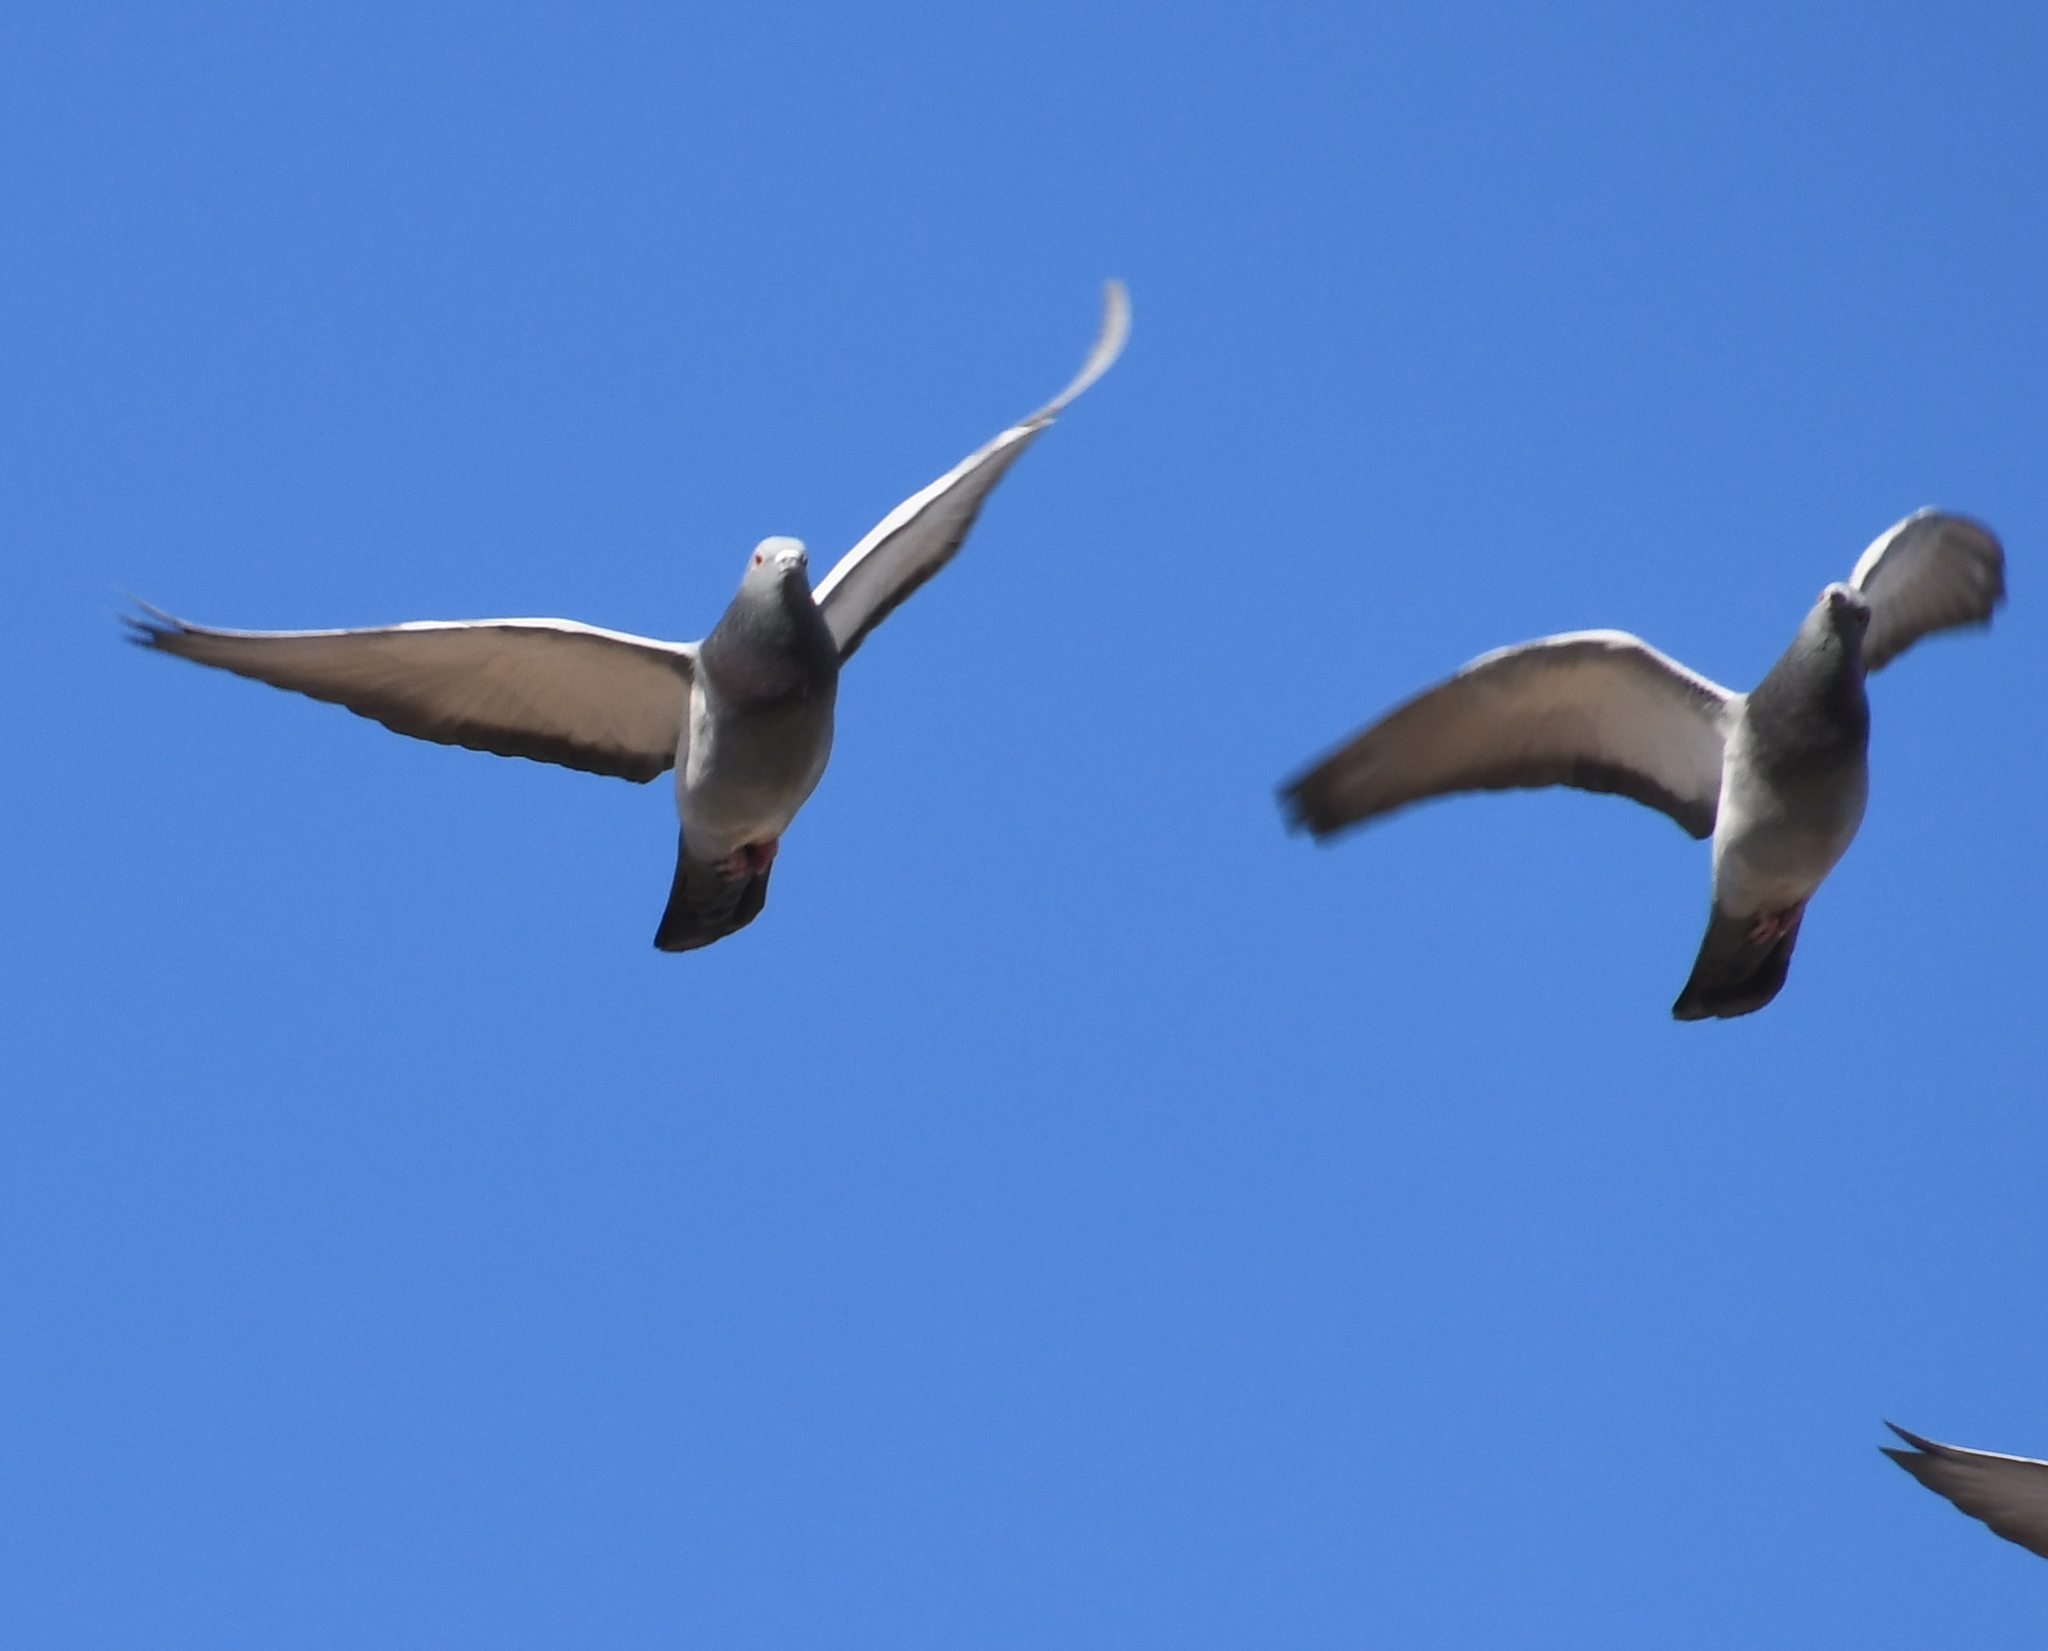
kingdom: Animalia
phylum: Chordata
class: Aves
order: Columbiformes
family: Columbidae
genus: Columba
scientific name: Columba livia
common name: Rock pigeon
